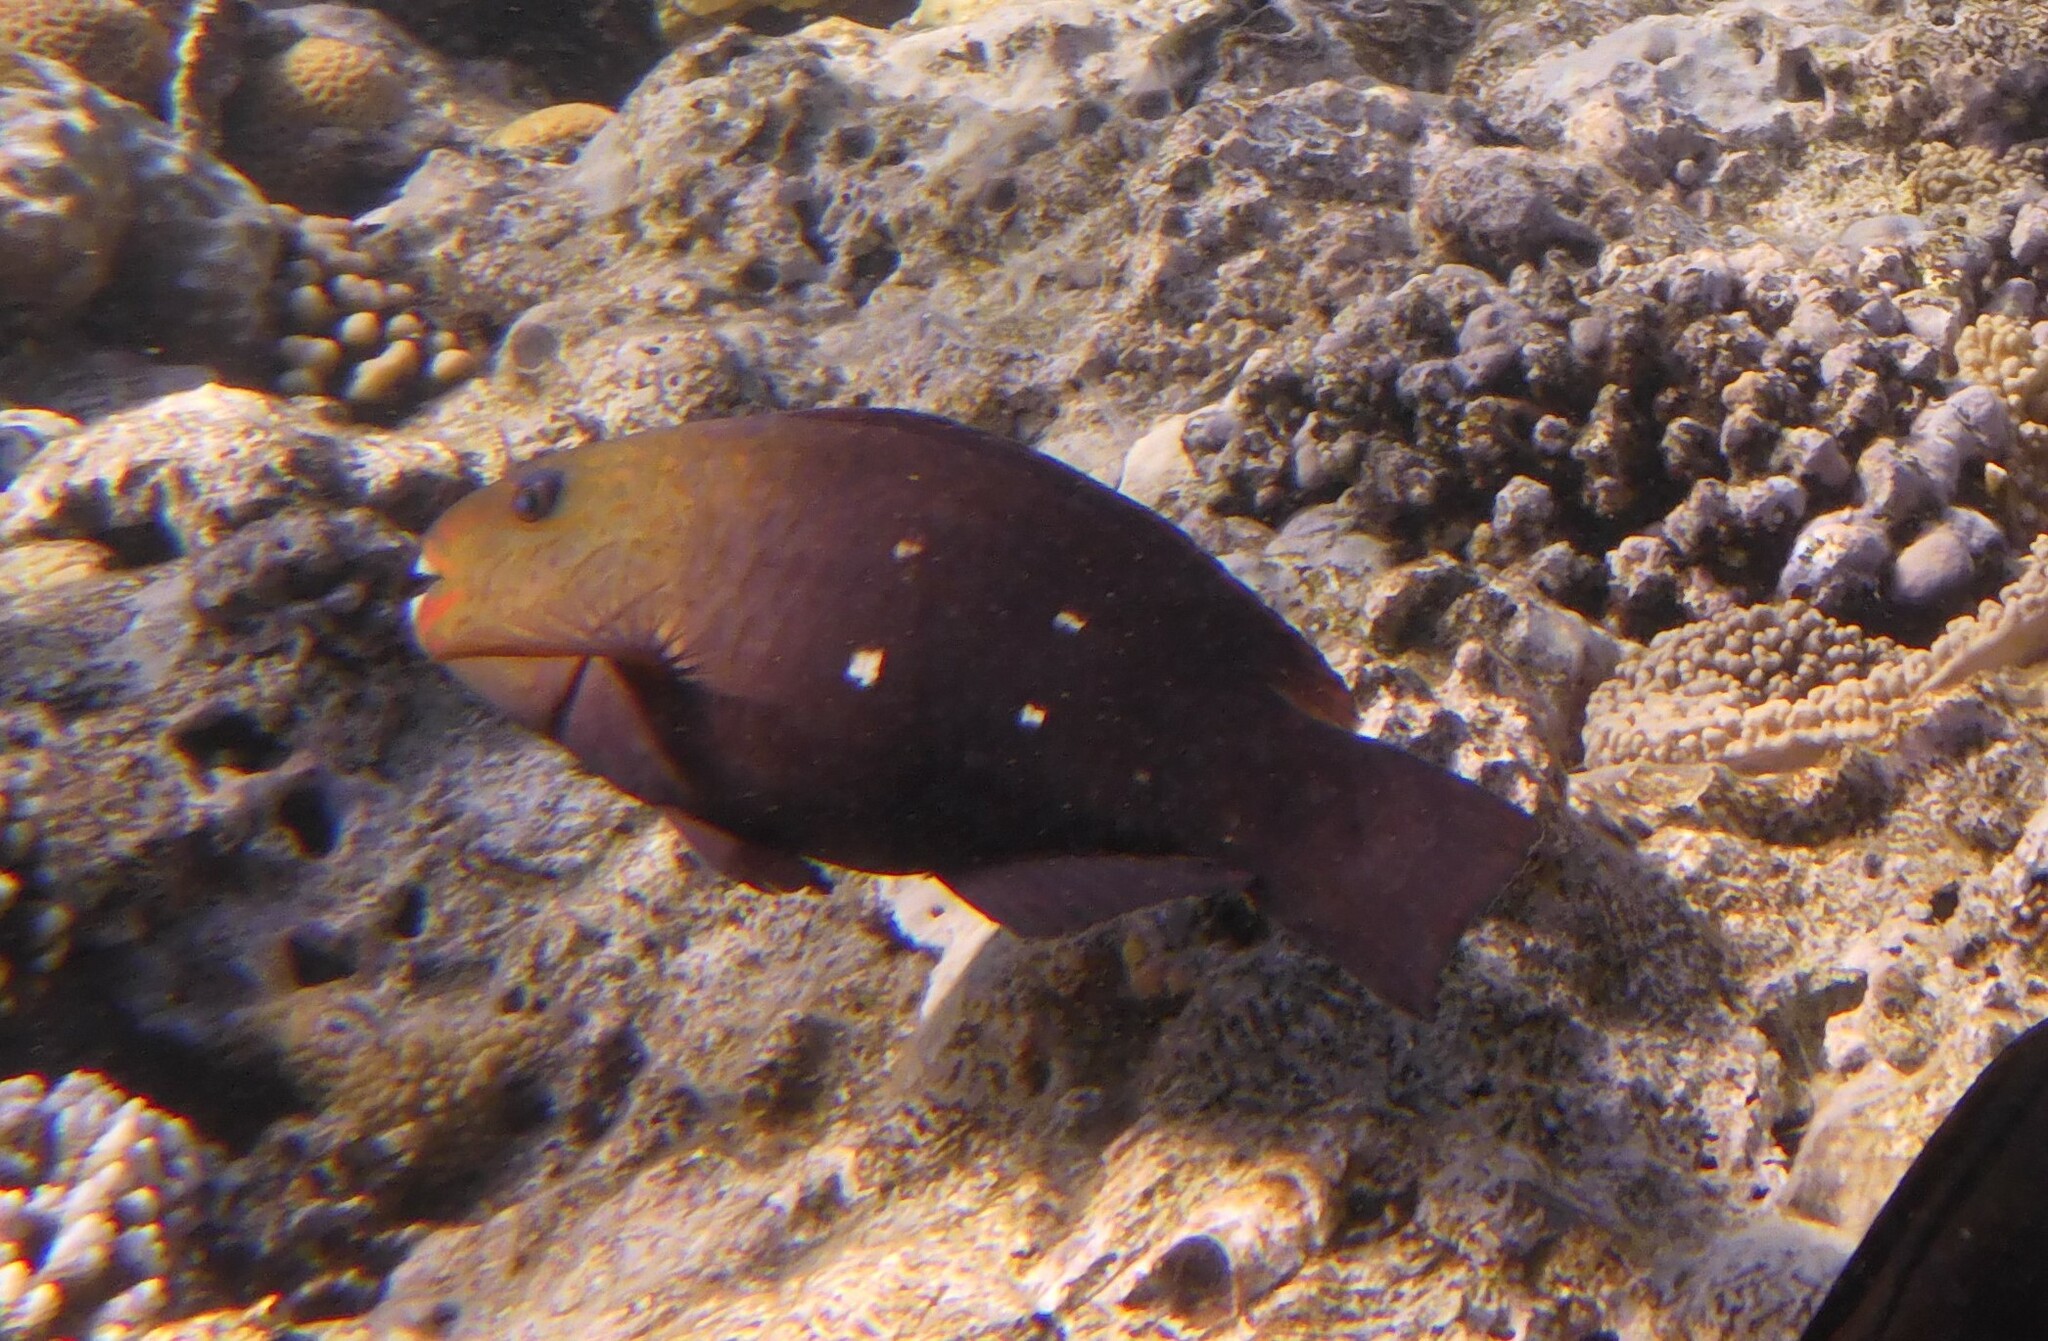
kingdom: Animalia
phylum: Chordata
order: Perciformes
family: Scaridae
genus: Chlorurus
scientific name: Chlorurus sordidus
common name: Bullethead parrotfish
